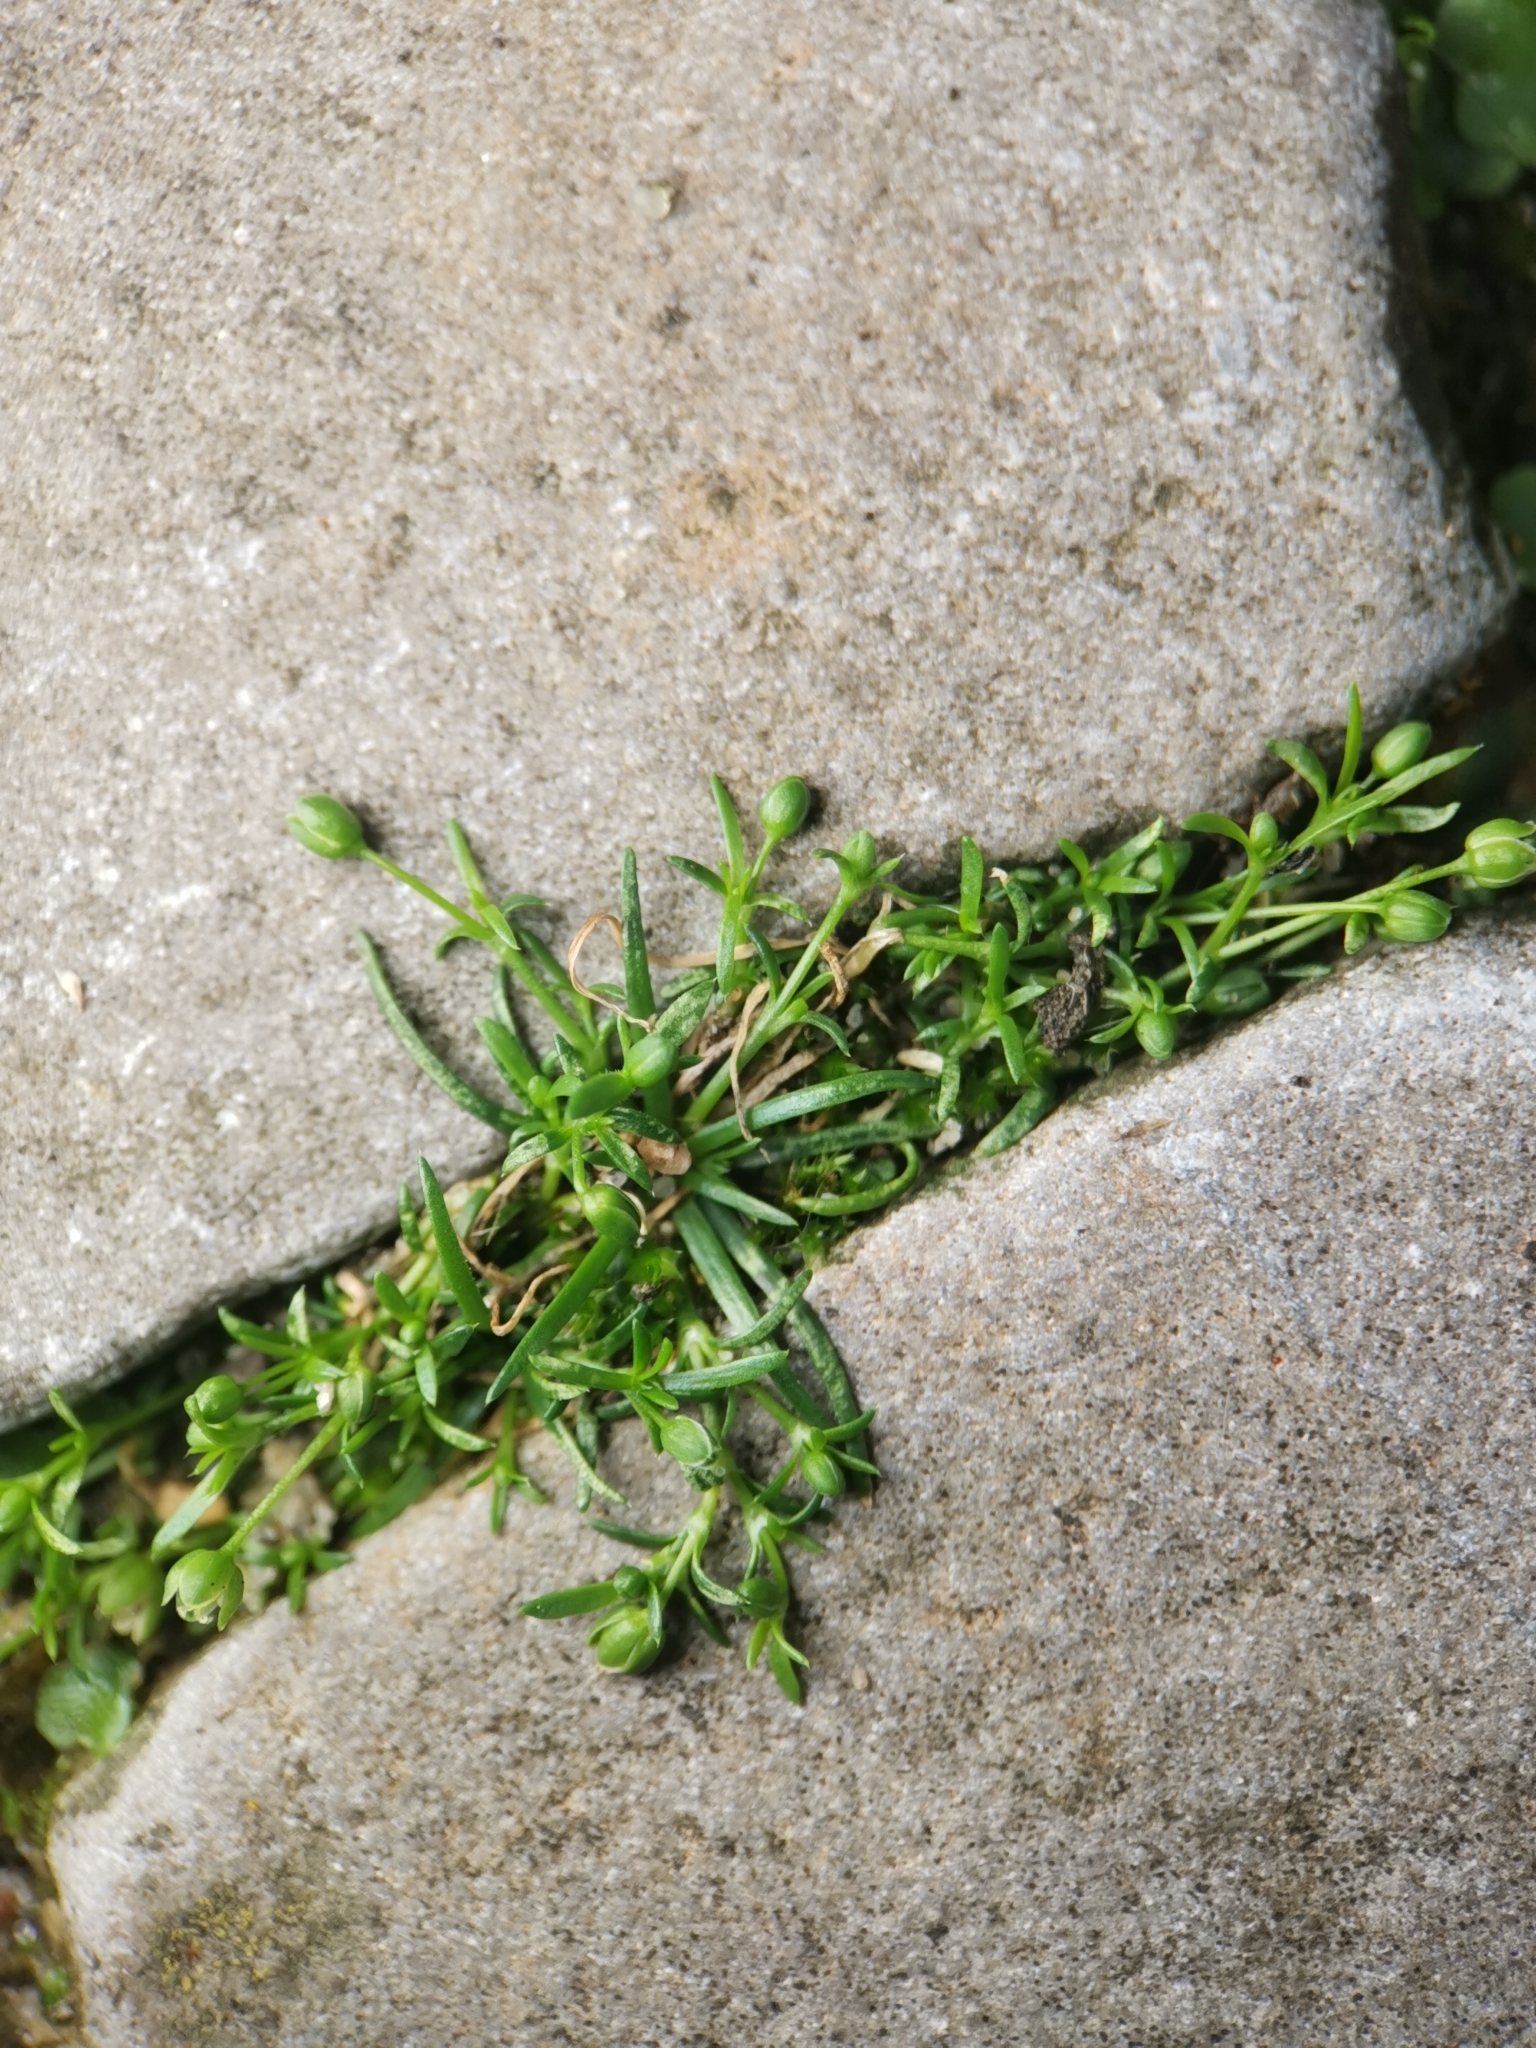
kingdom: Plantae
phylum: Tracheophyta
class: Magnoliopsida
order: Caryophyllales
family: Caryophyllaceae
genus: Sagina
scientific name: Sagina procumbens
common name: Procumbent pearlwort
